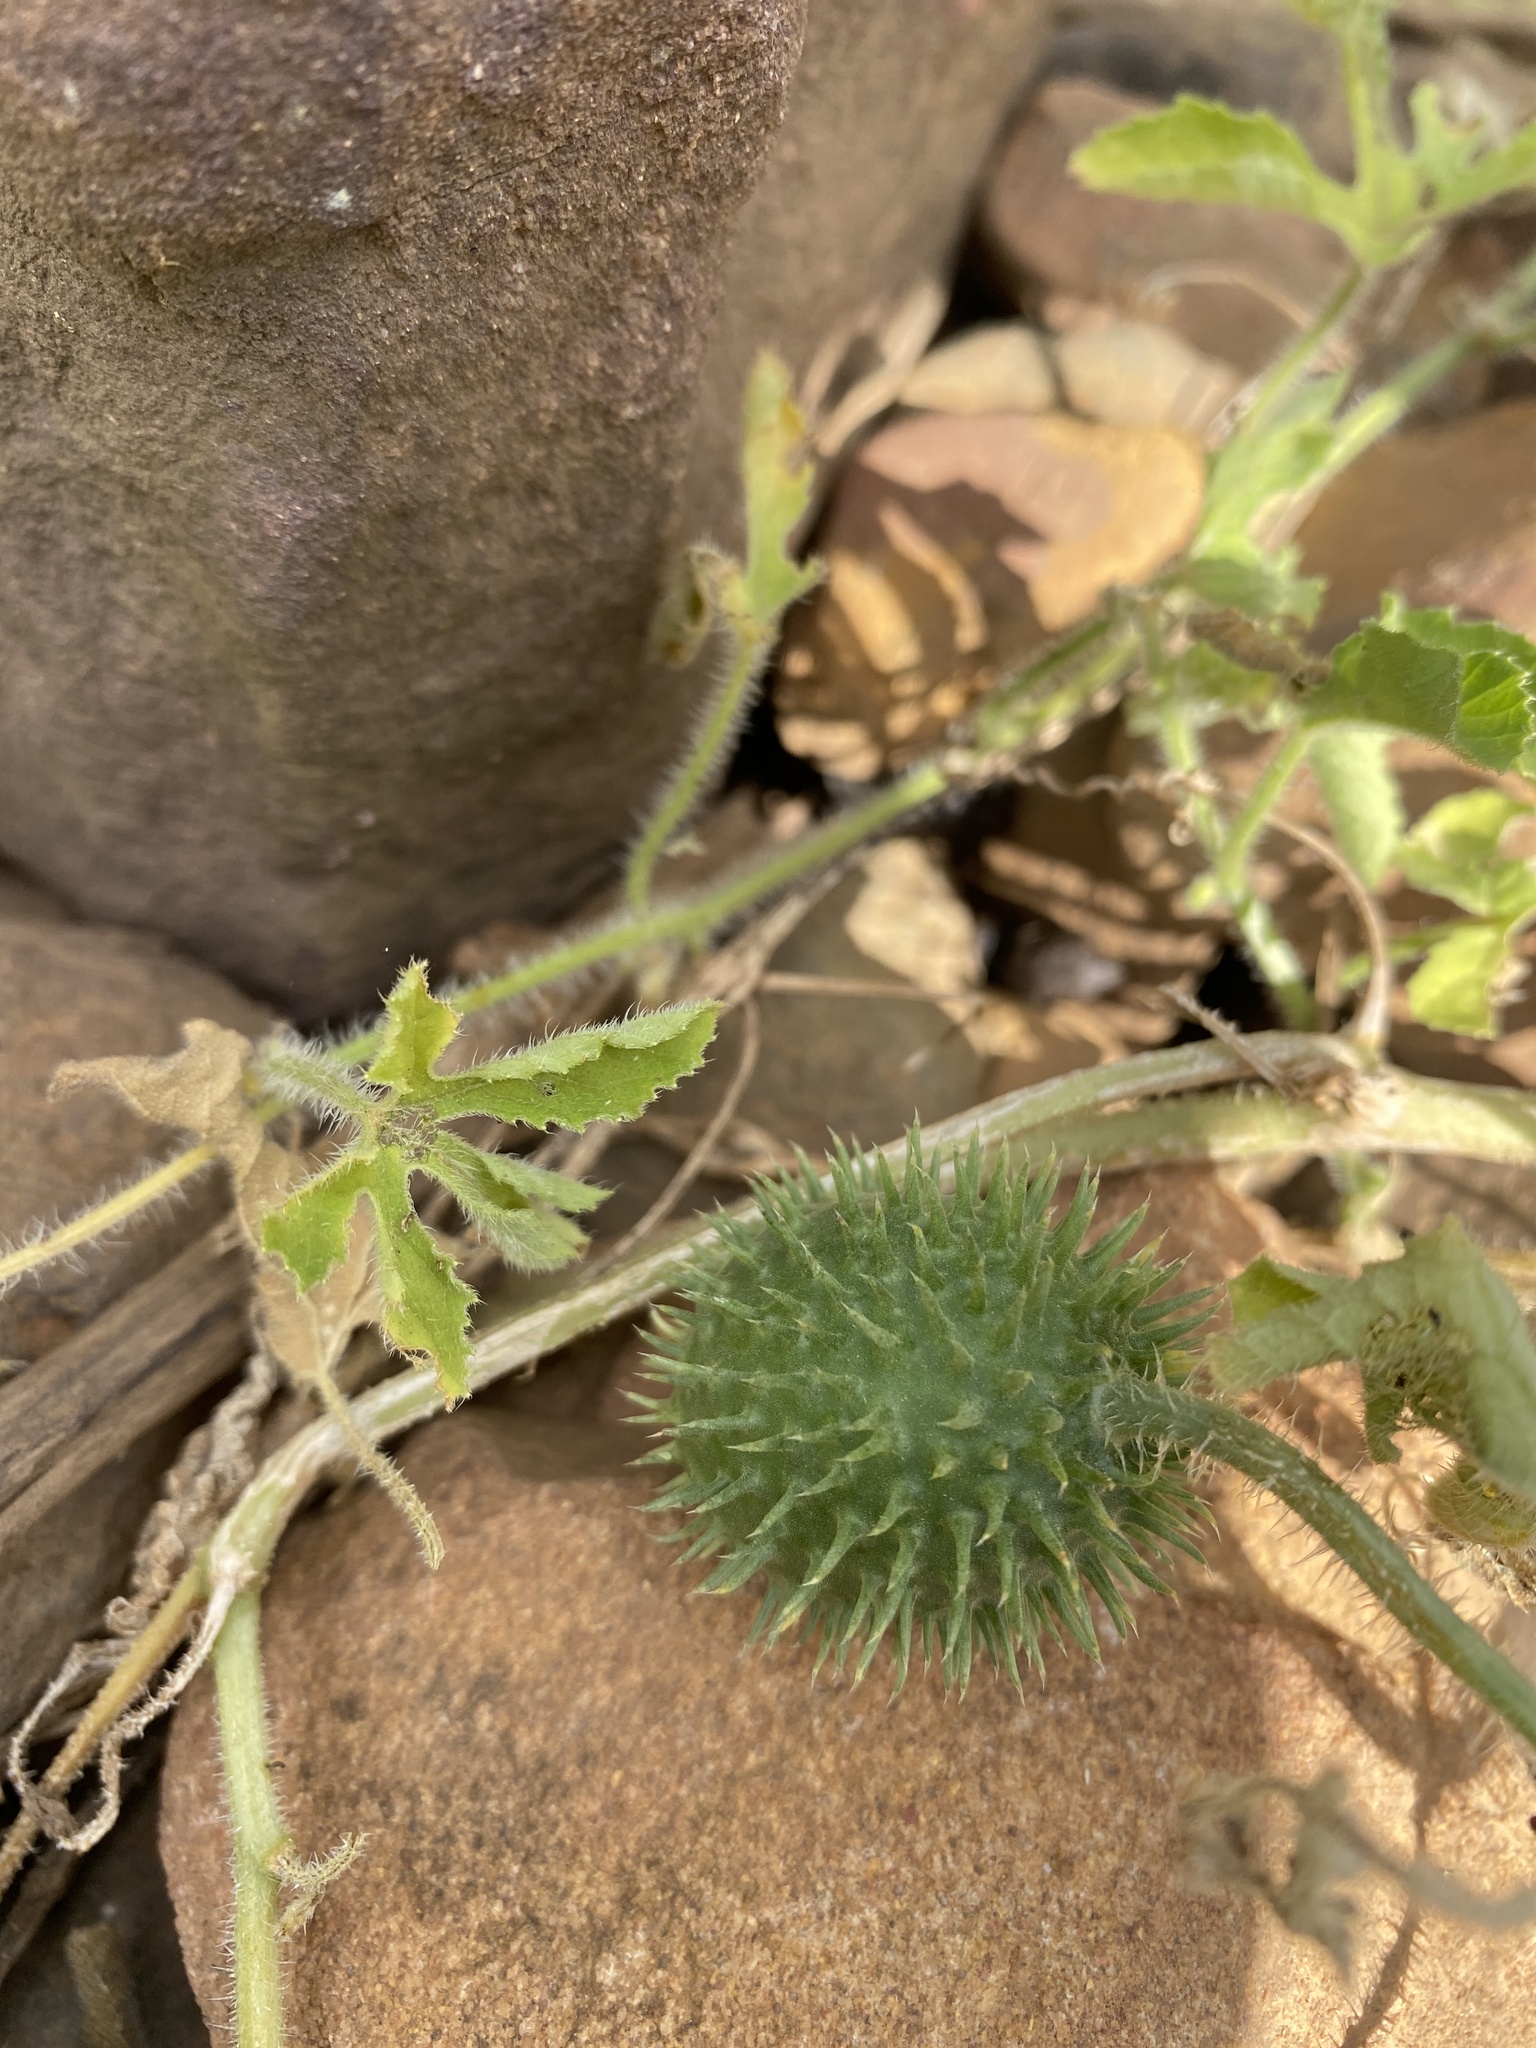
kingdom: Plantae
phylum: Tracheophyta
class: Magnoliopsida
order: Cucurbitales
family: Cucurbitaceae
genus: Cucumis
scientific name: Cucumis zeyheri
